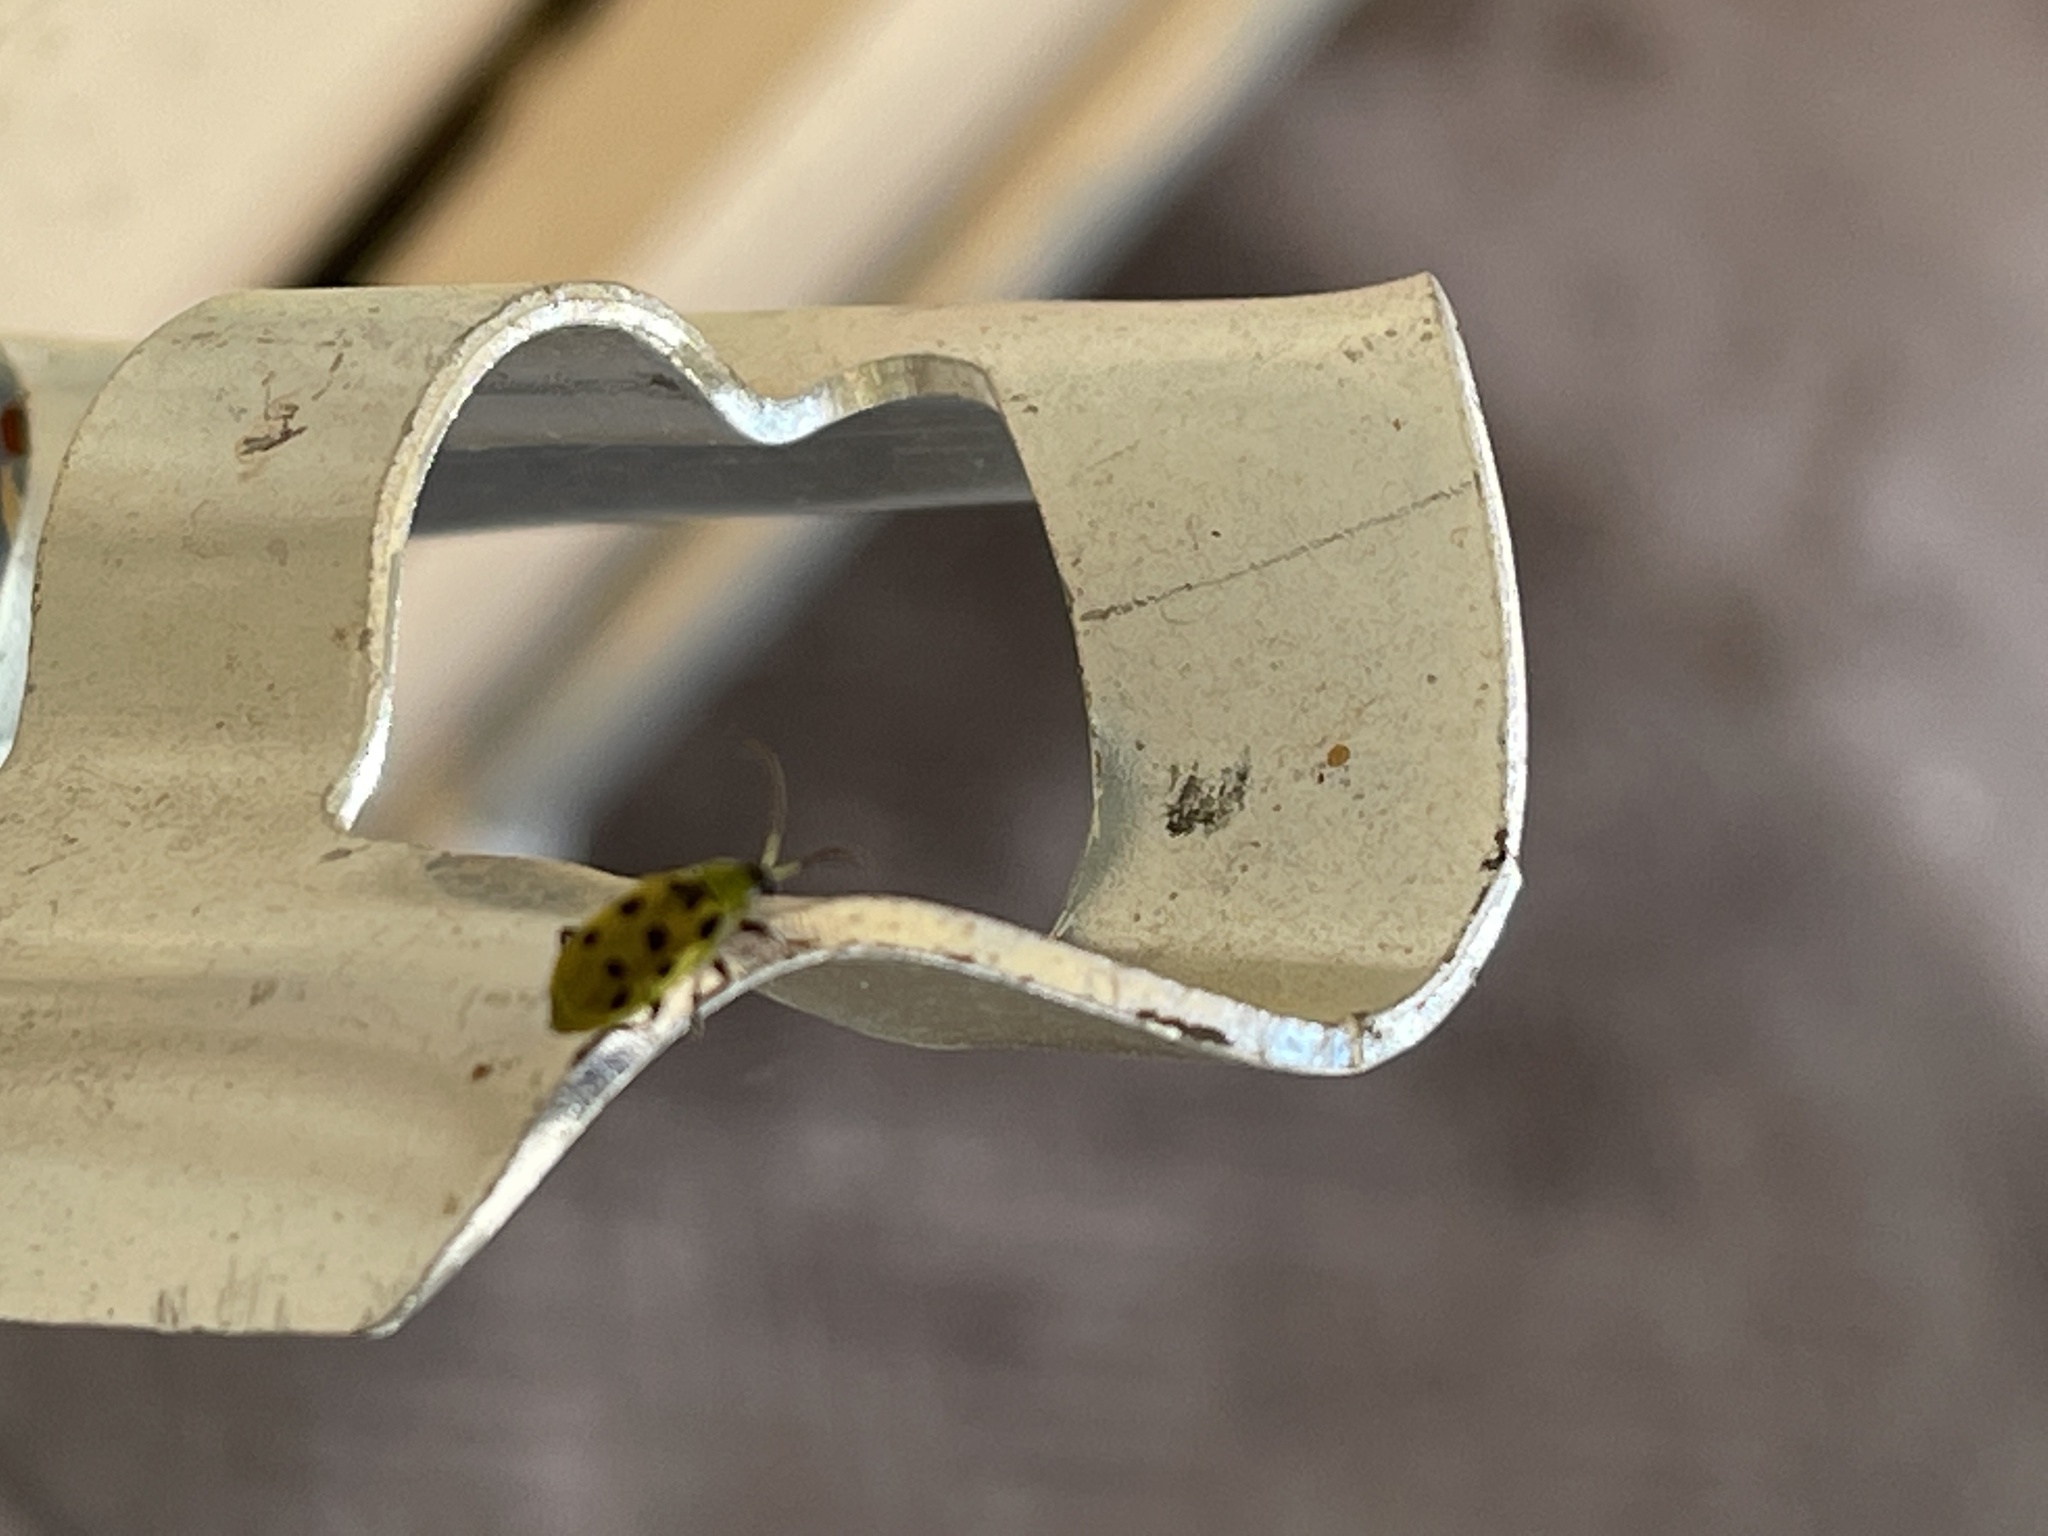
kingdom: Animalia
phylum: Arthropoda
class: Insecta
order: Coleoptera
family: Chrysomelidae
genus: Diabrotica
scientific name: Diabrotica undecimpunctata
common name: Spotted cucumber beetle
